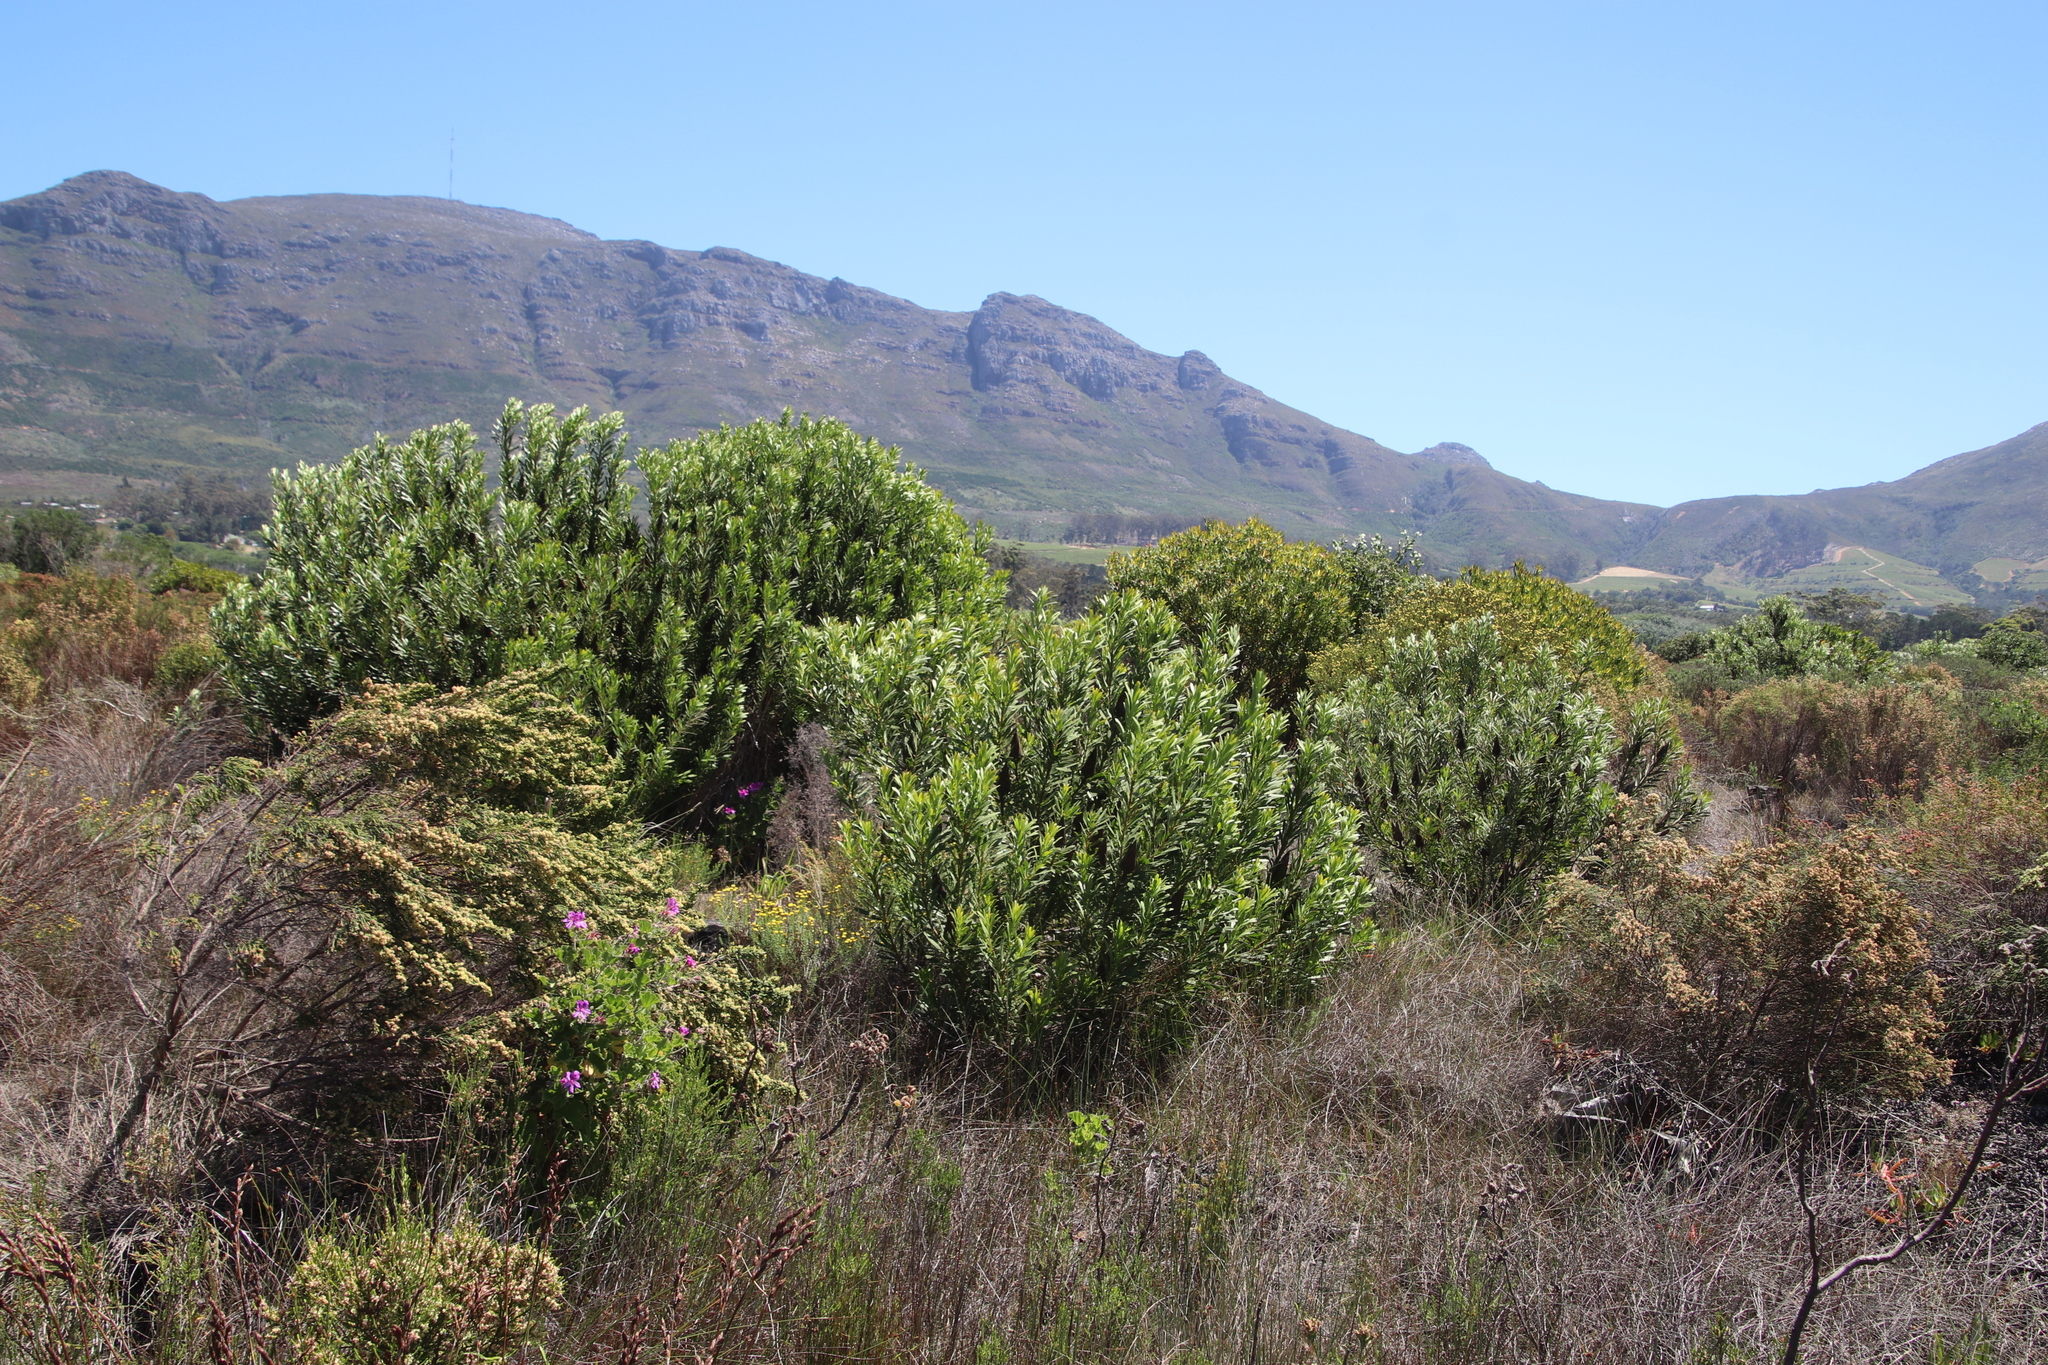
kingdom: Plantae
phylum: Tracheophyta
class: Magnoliopsida
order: Proteales
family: Proteaceae
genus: Protea
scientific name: Protea repens
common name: Sugarbush
